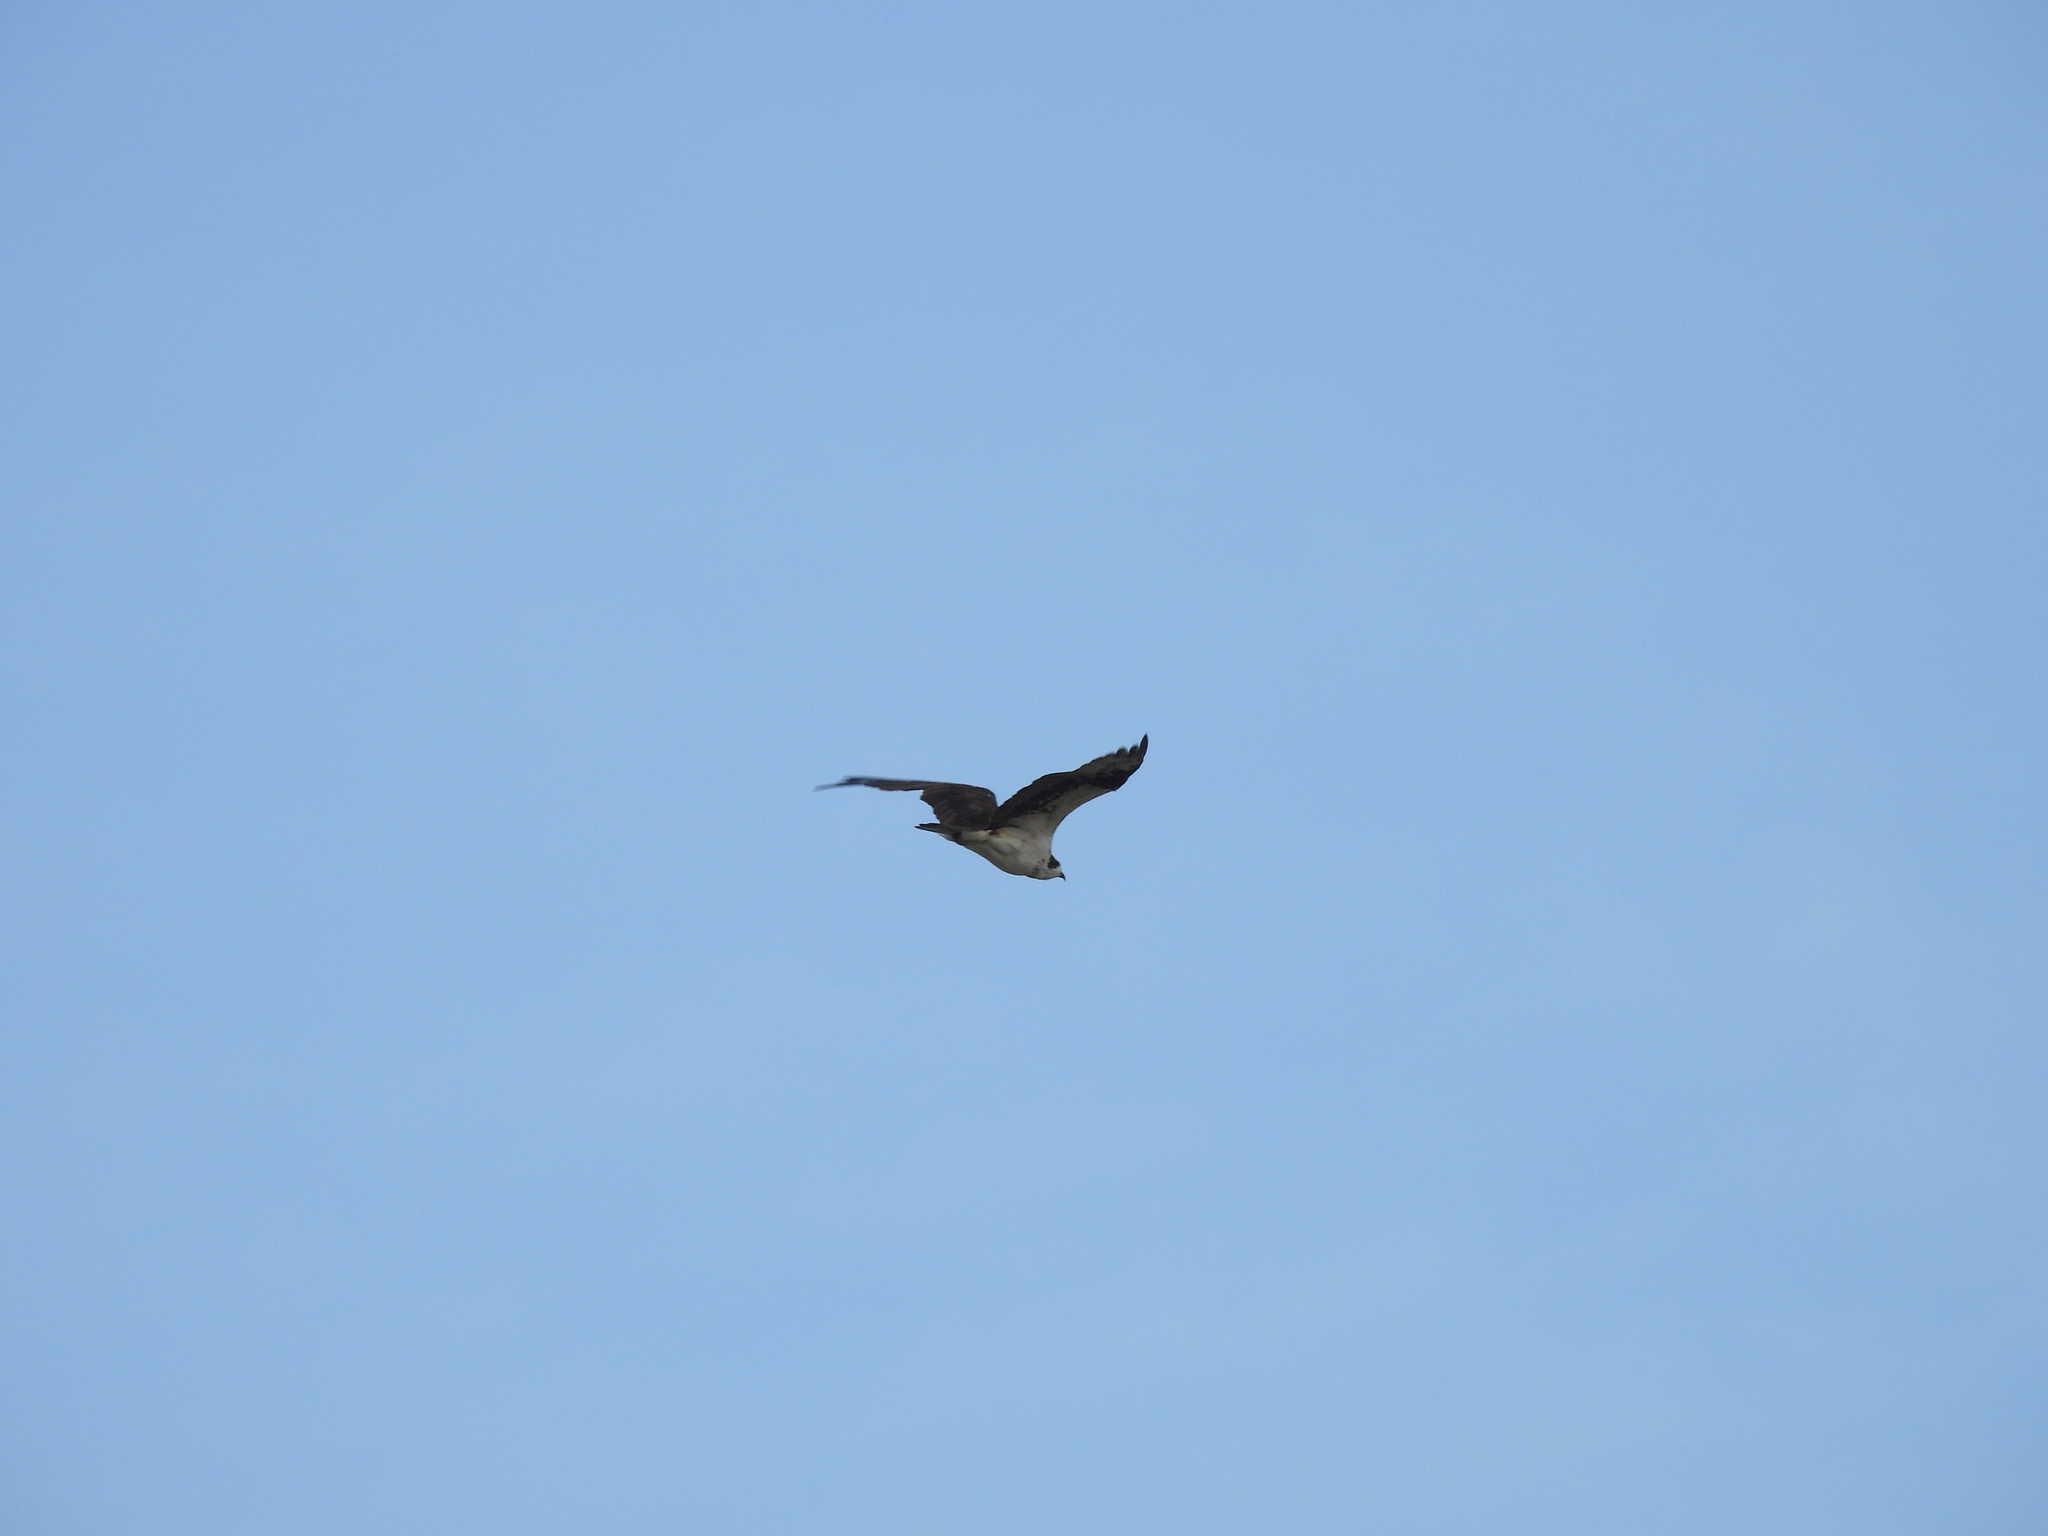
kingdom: Animalia
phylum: Chordata
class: Aves
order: Accipitriformes
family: Pandionidae
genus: Pandion
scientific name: Pandion haliaetus
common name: Osprey
